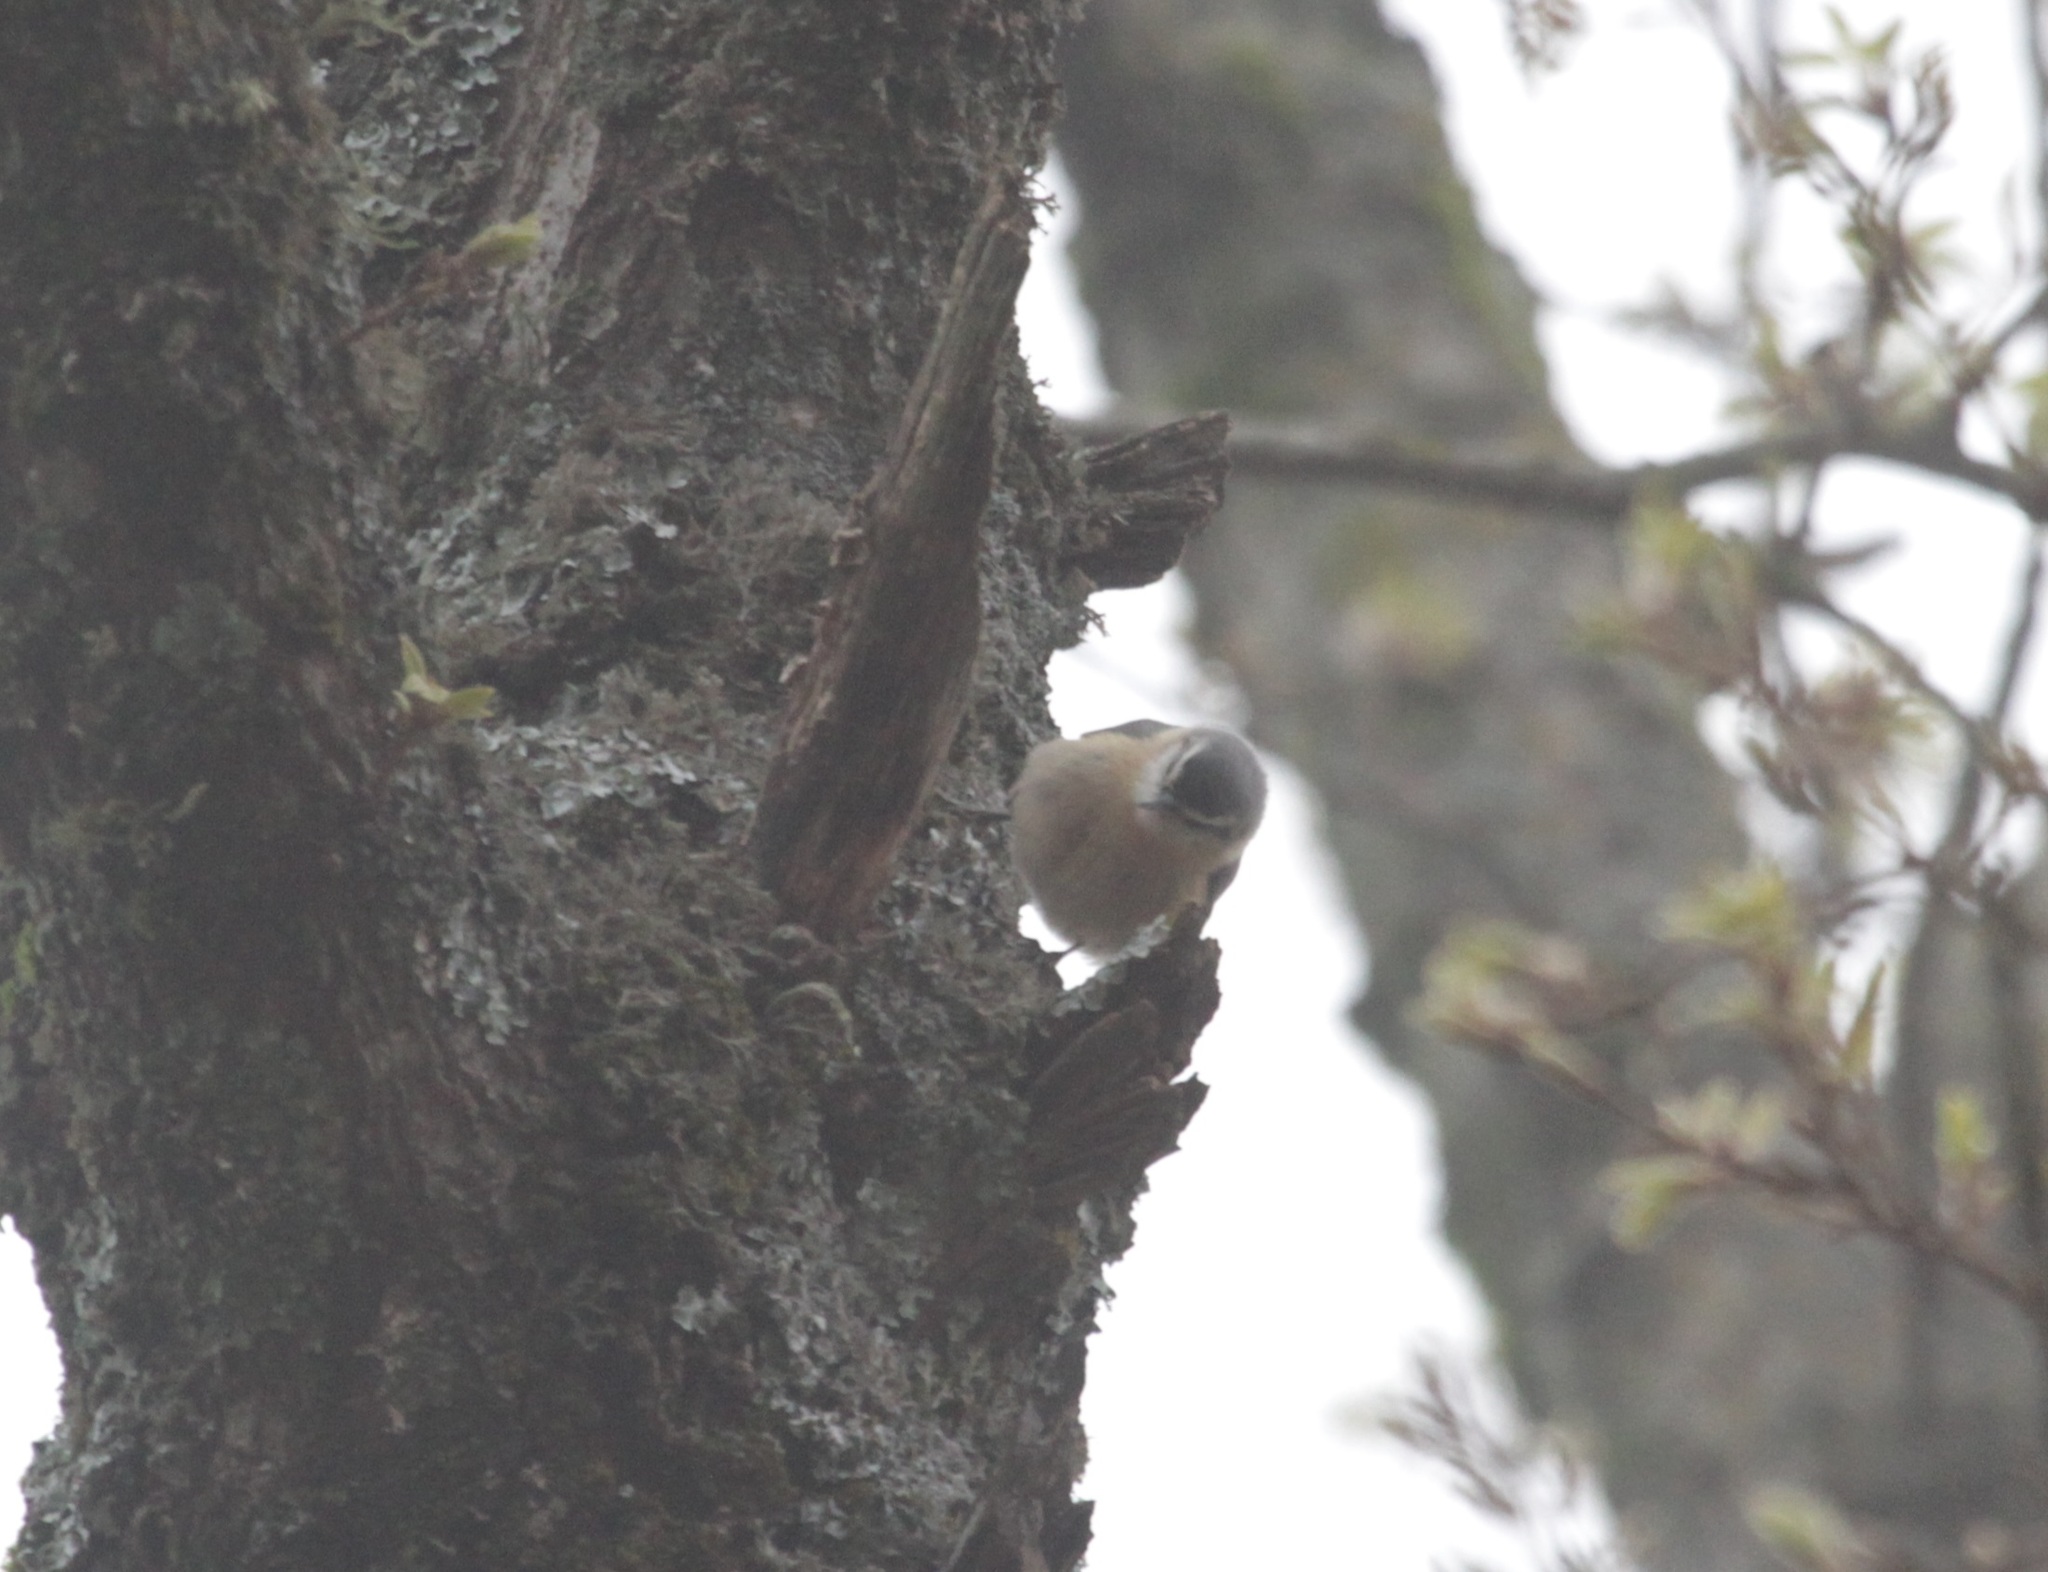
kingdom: Animalia
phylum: Chordata
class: Aves
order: Passeriformes
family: Sittidae
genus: Sitta
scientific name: Sitta ledanti
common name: Algerian nuthatch
